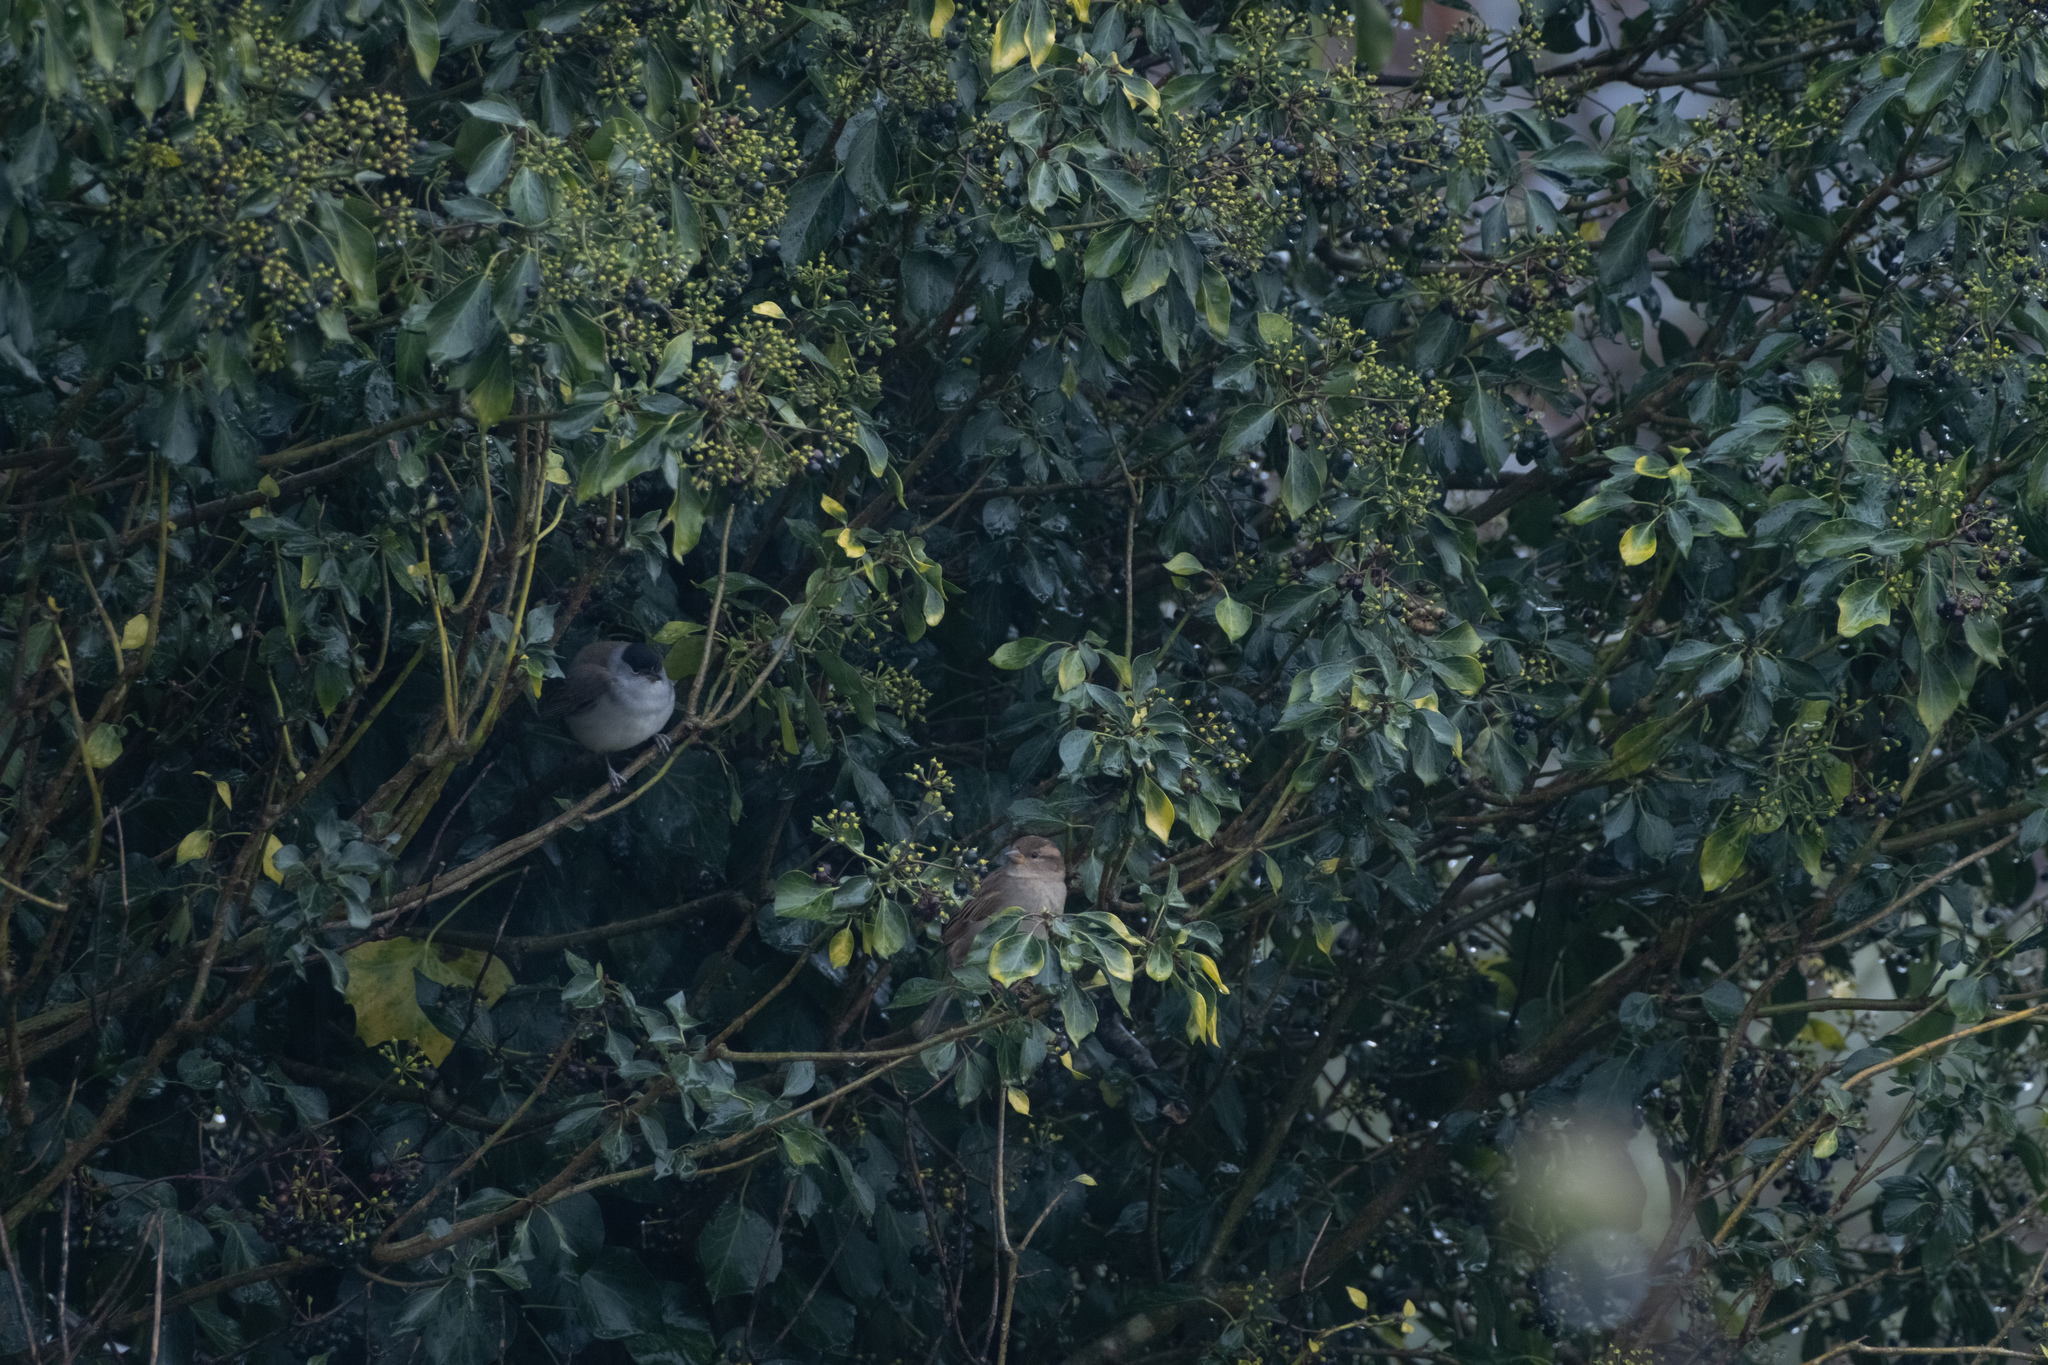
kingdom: Animalia
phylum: Chordata
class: Aves
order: Passeriformes
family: Sylviidae
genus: Sylvia
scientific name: Sylvia atricapilla
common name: Eurasian blackcap
